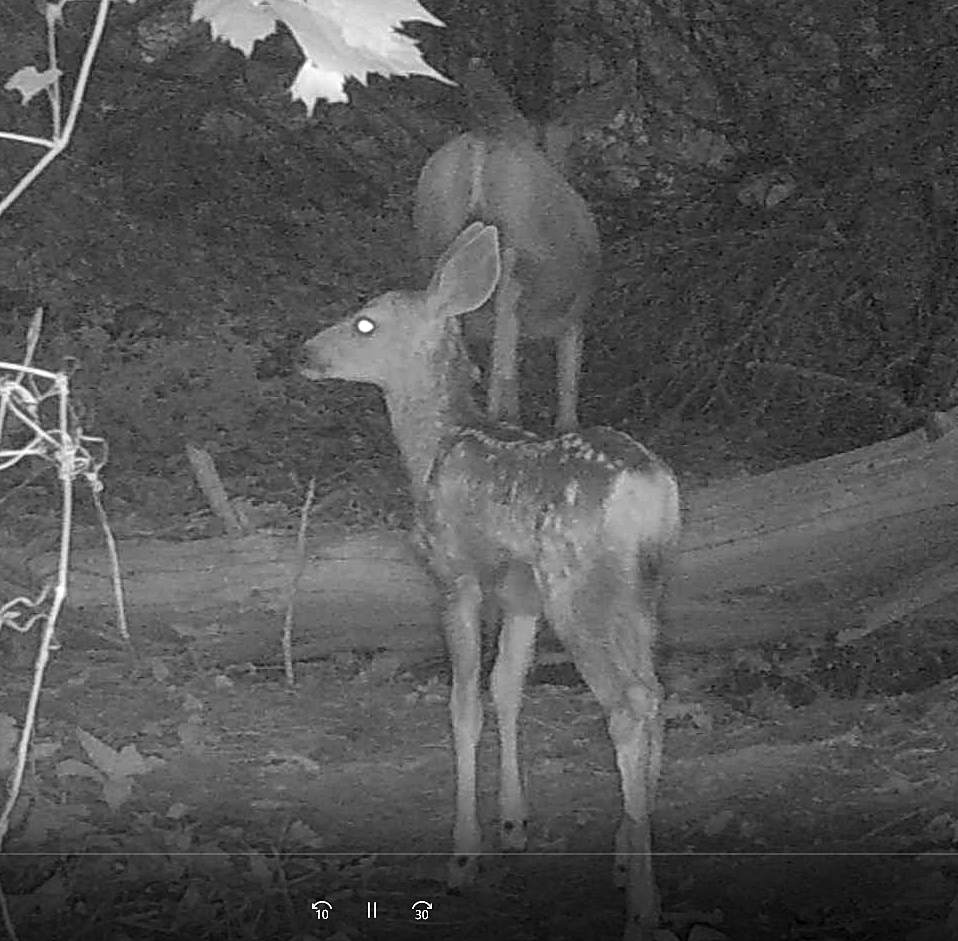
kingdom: Animalia
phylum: Chordata
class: Mammalia
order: Artiodactyla
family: Cervidae
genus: Odocoileus
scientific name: Odocoileus hemionus
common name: Mule deer
